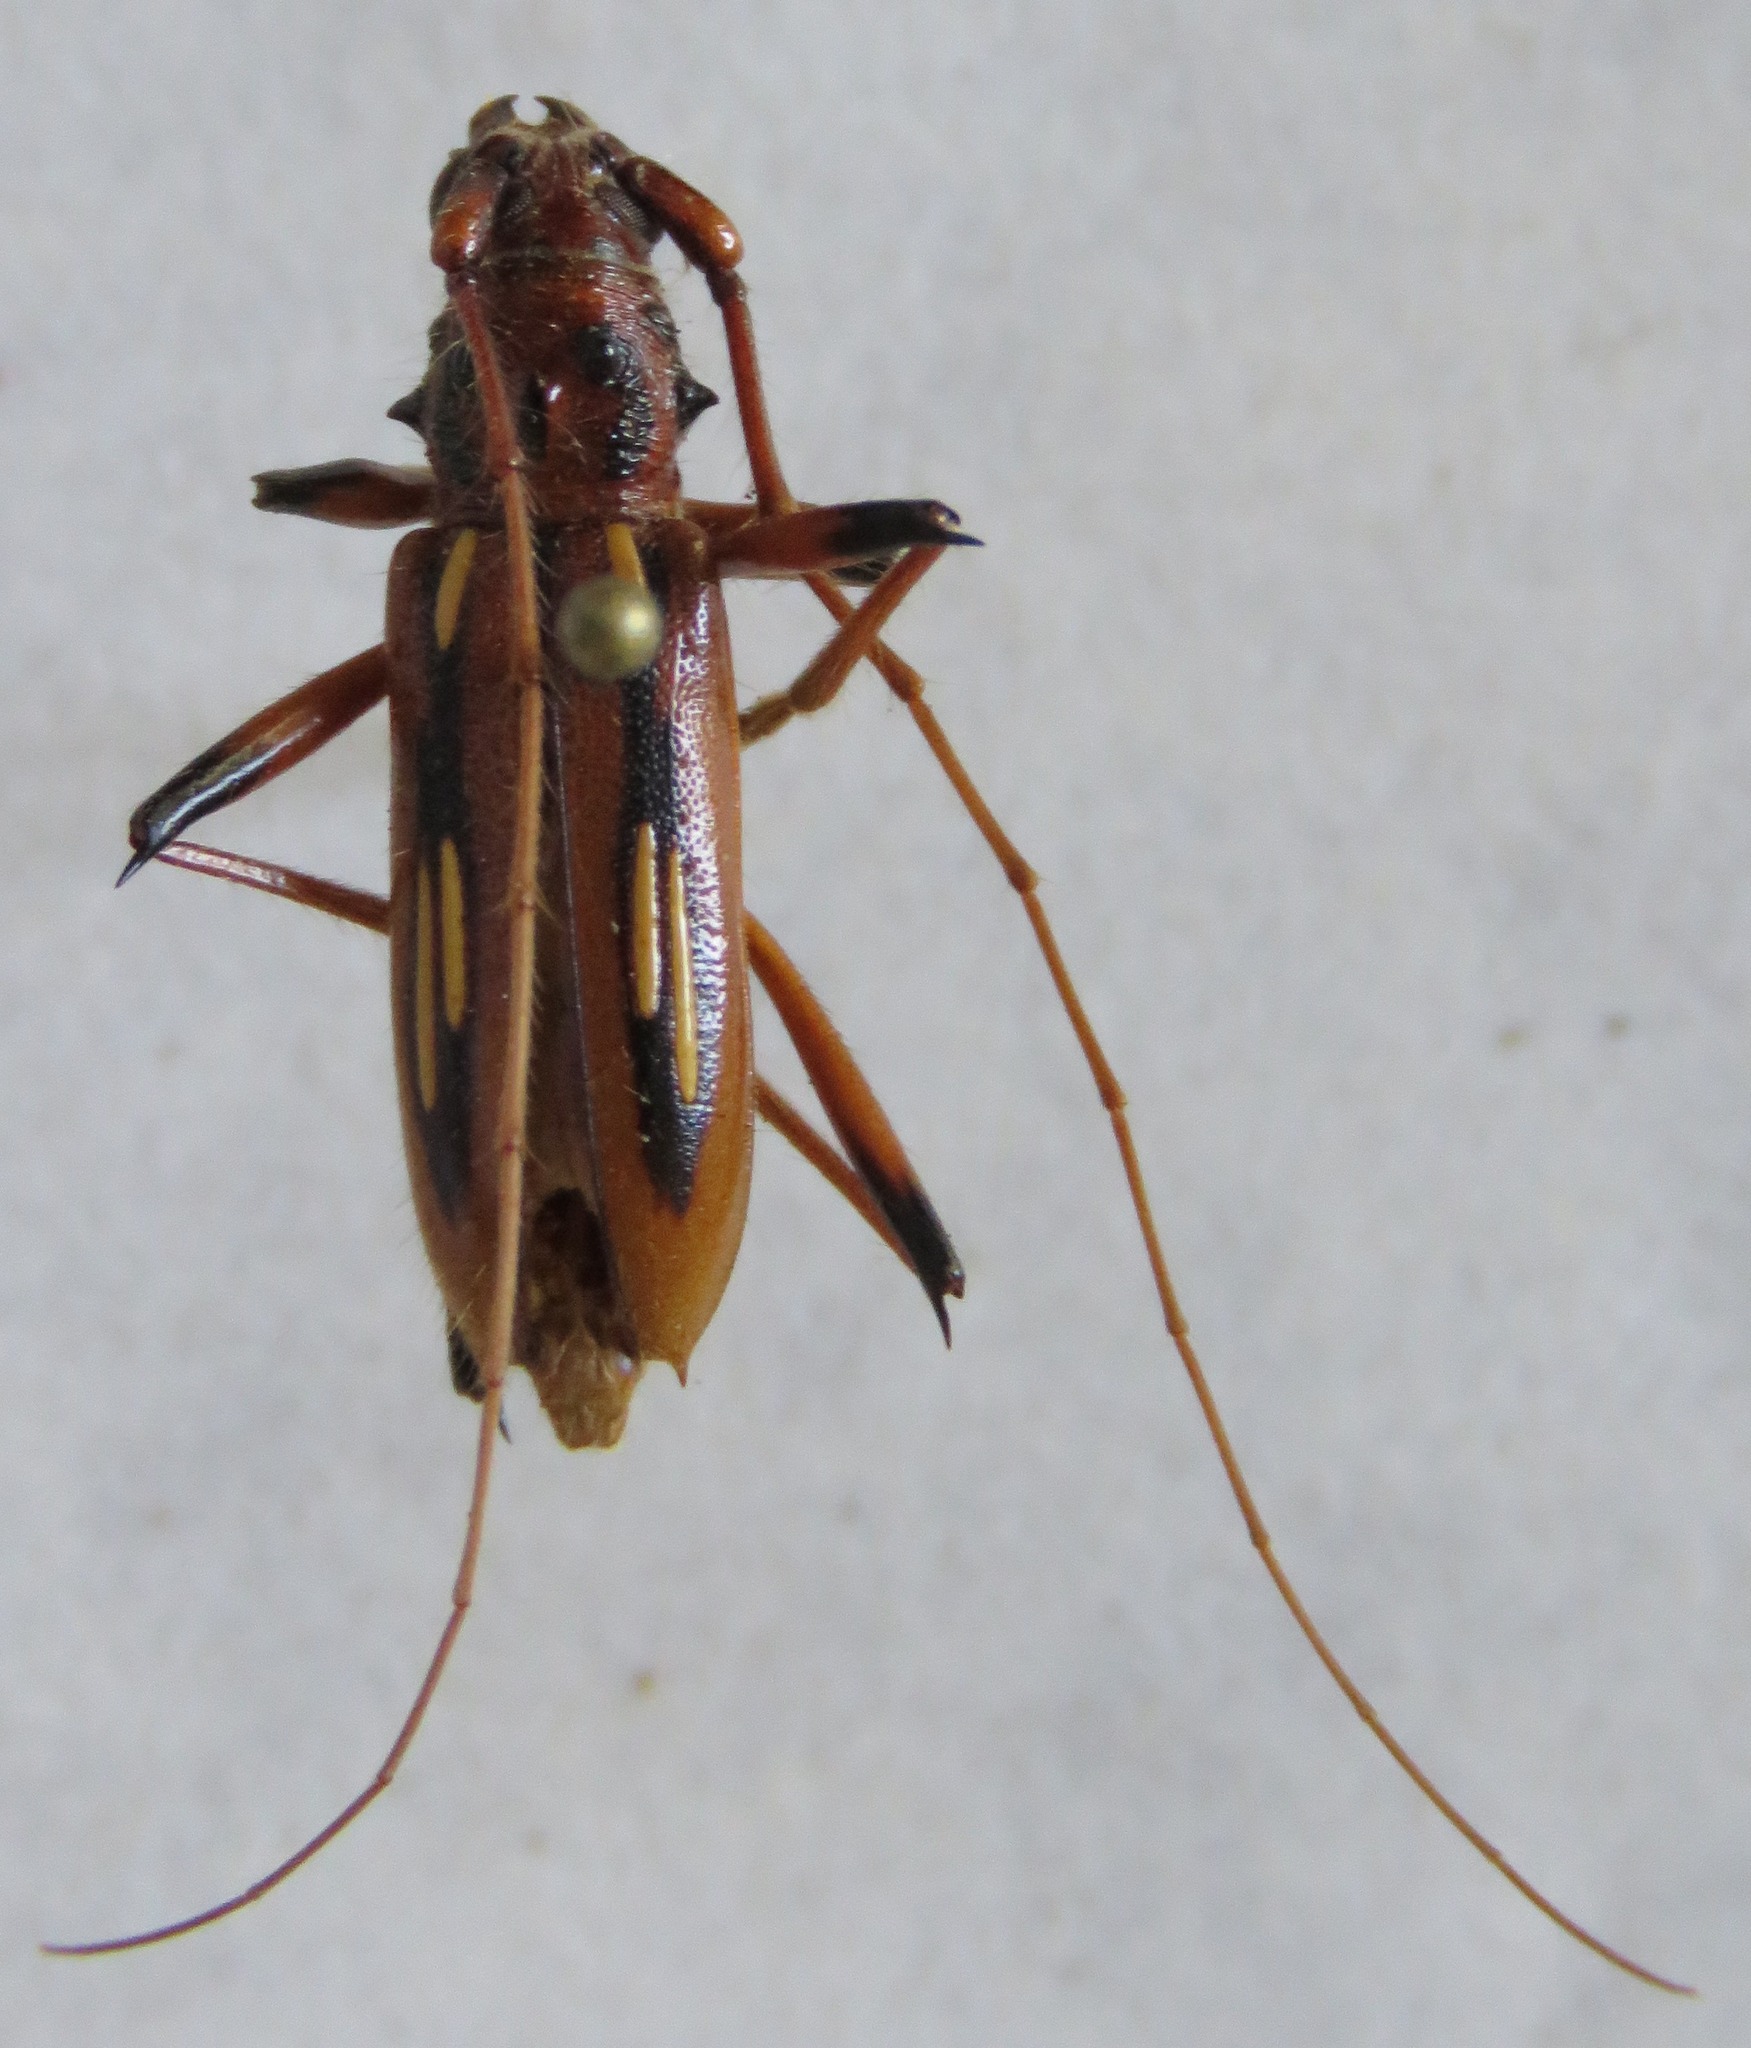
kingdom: Animalia
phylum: Arthropoda
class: Insecta
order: Coleoptera
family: Cerambycidae
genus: Eburodacrys
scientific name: Eburodacrys sticticollis
